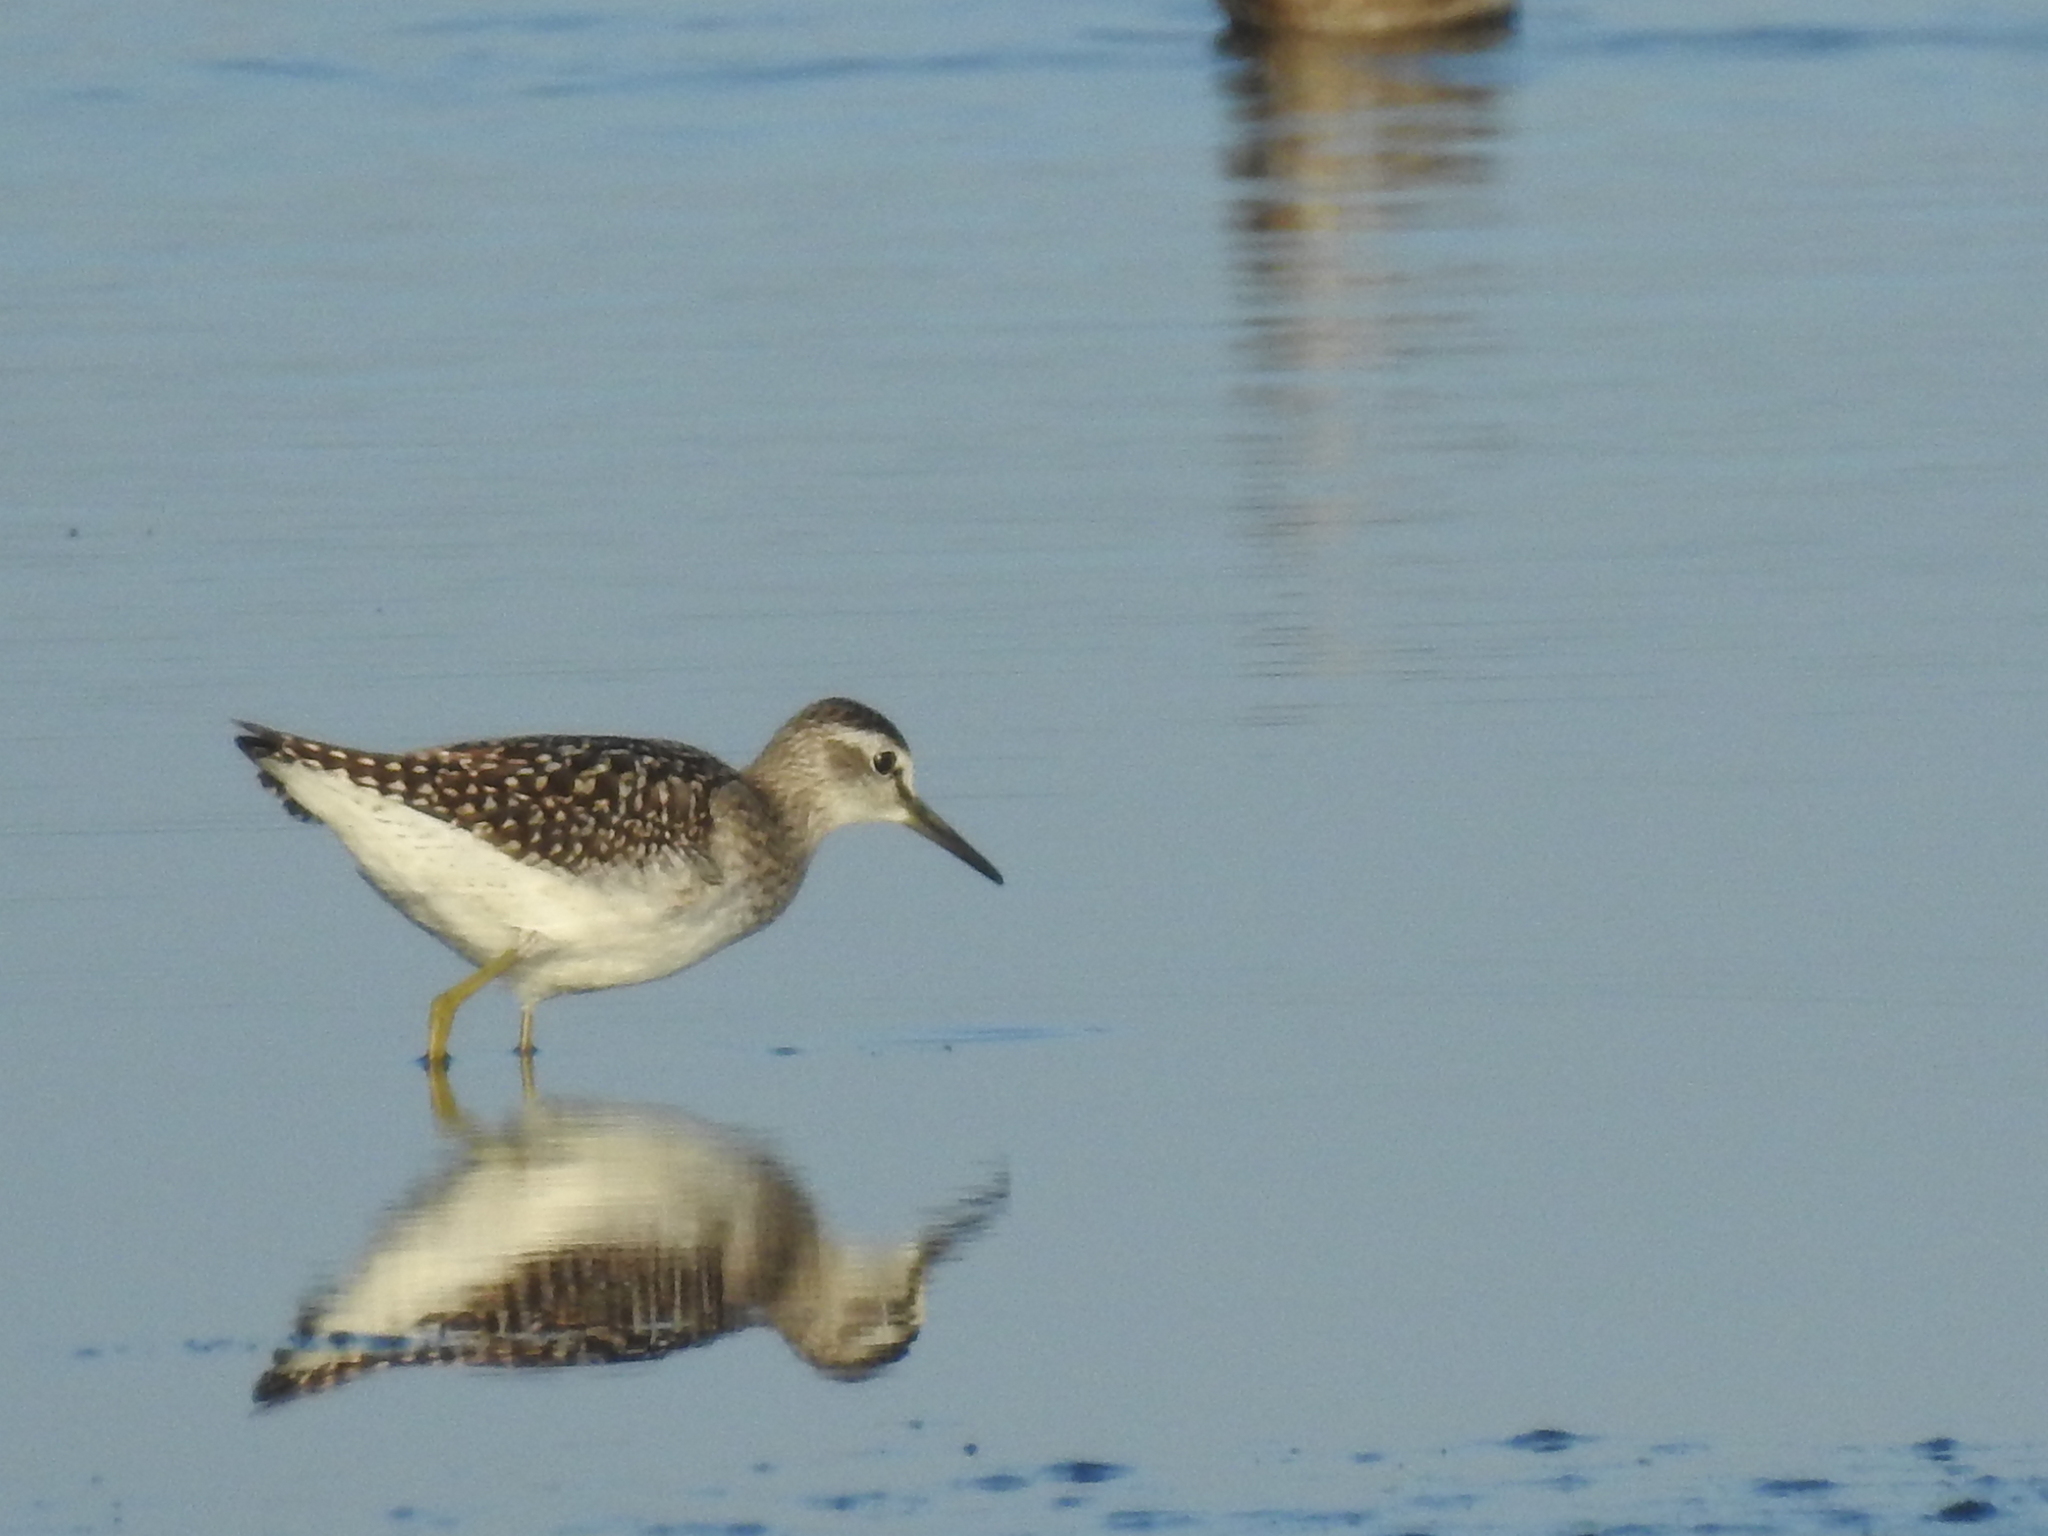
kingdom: Animalia
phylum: Chordata
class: Aves
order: Charadriiformes
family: Scolopacidae
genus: Tringa
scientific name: Tringa glareola
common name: Wood sandpiper
